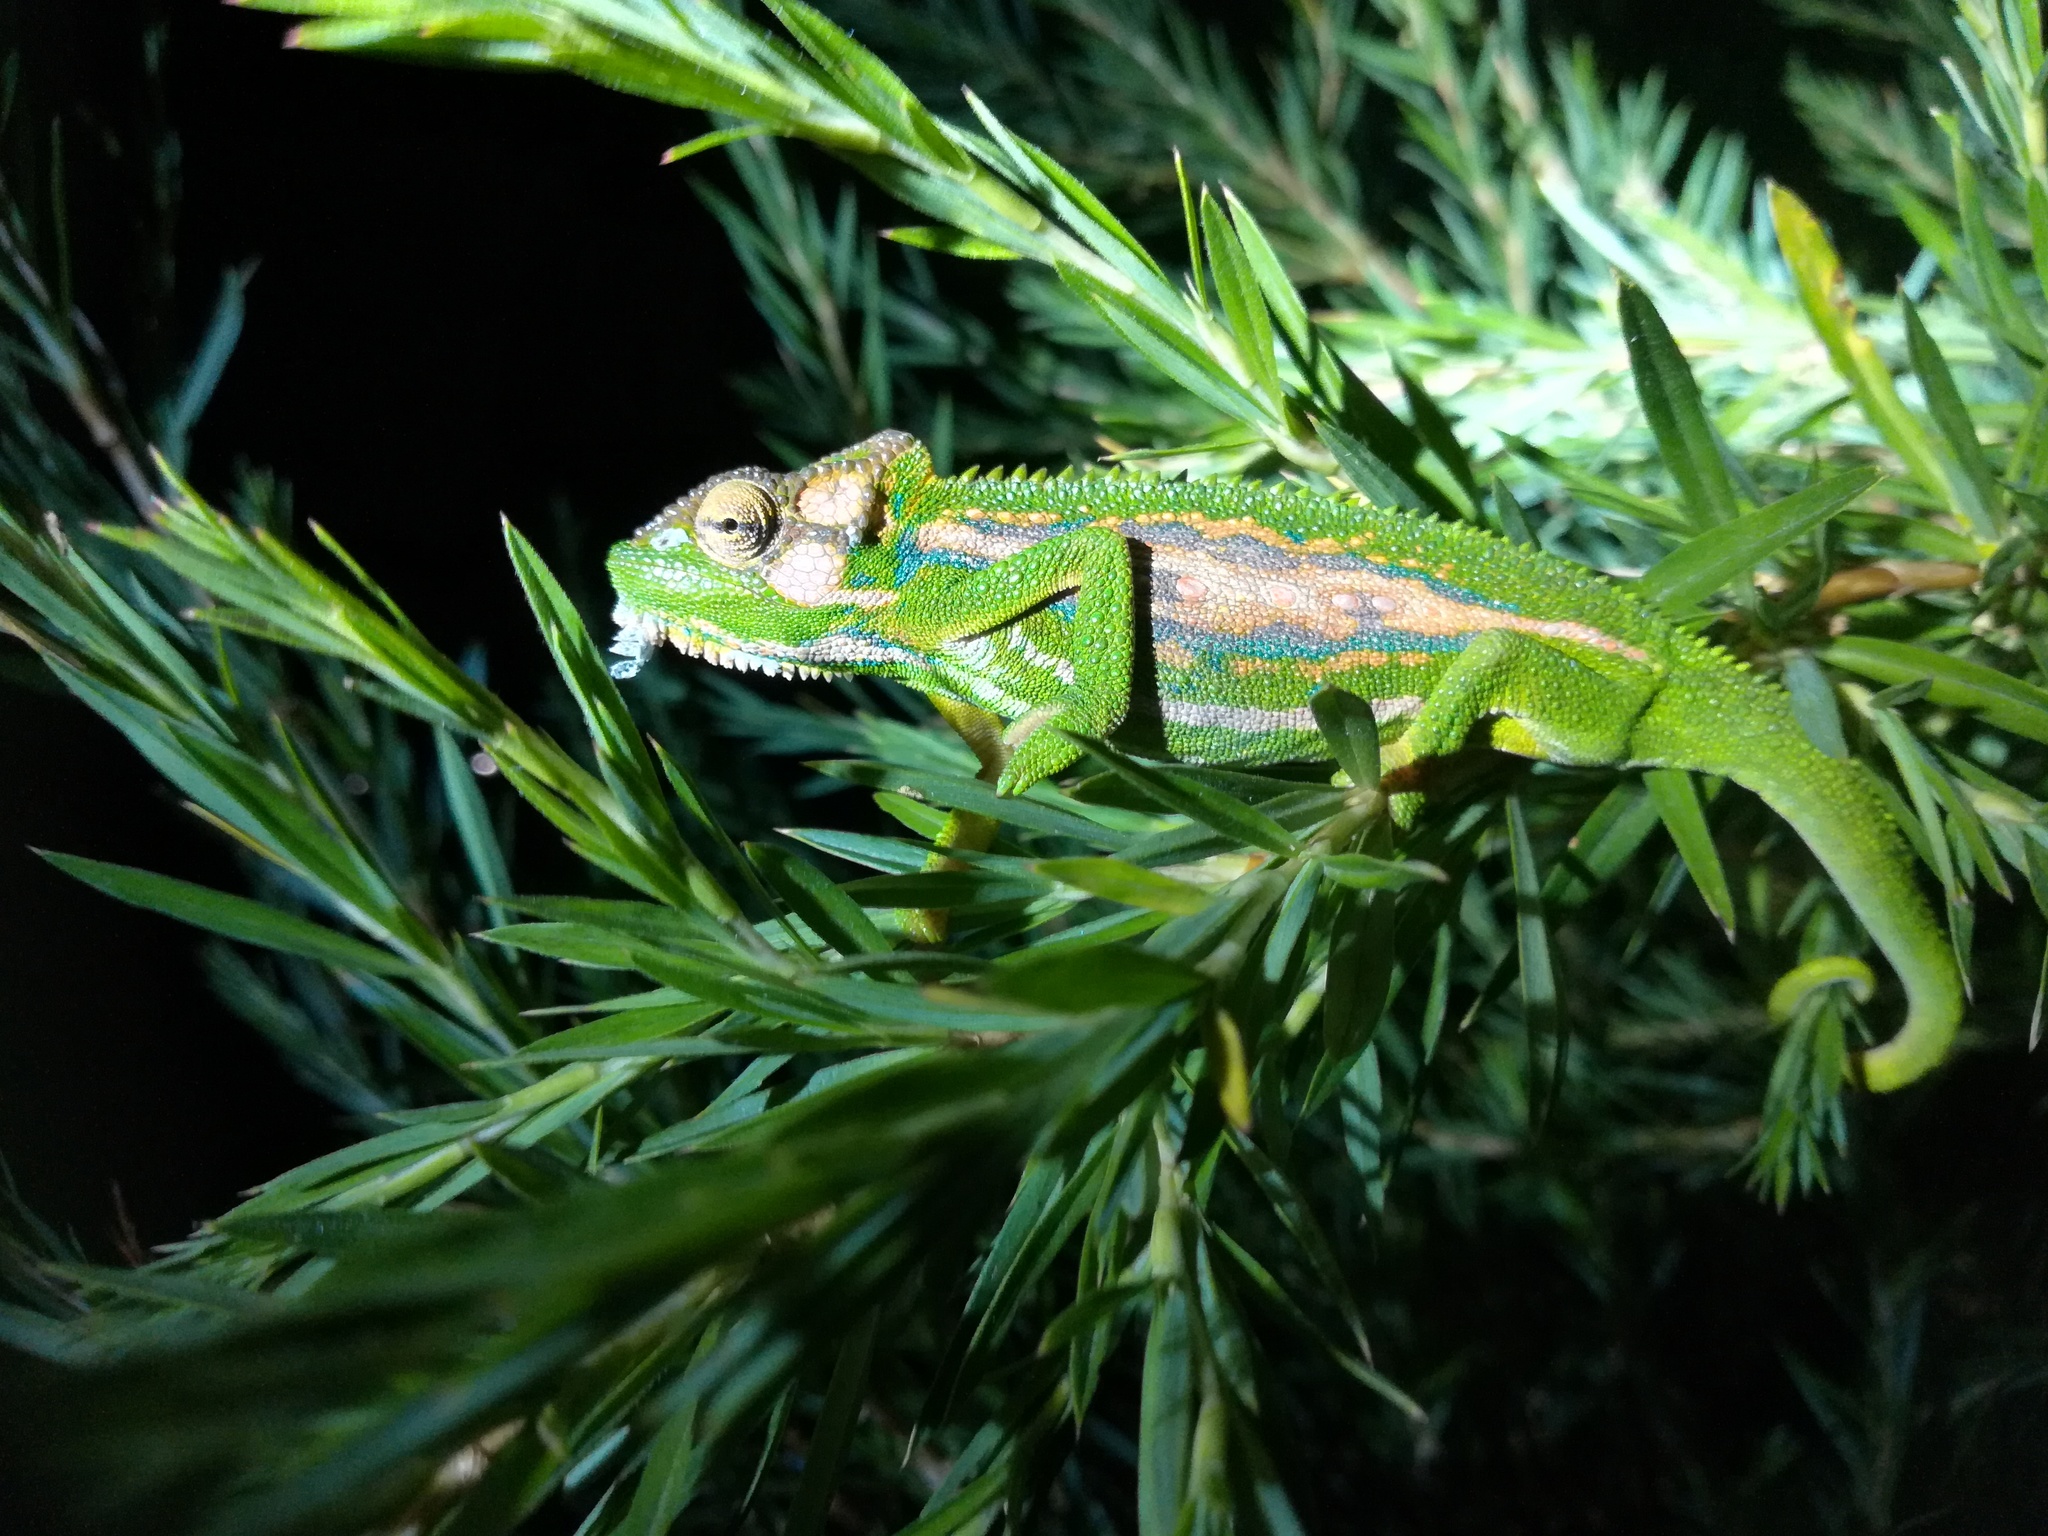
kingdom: Animalia
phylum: Chordata
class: Squamata
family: Chamaeleonidae
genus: Bradypodion
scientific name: Bradypodion pumilum
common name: Cape dwarf chameleon
